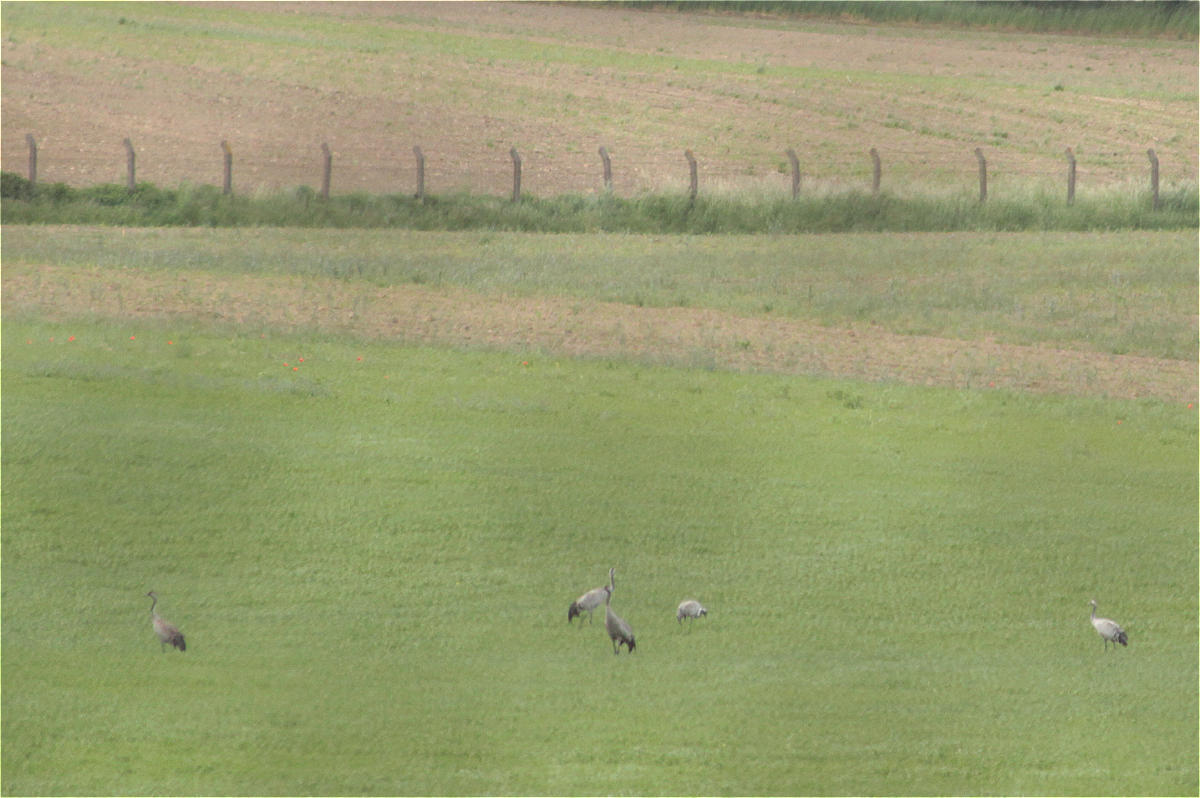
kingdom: Animalia
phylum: Chordata
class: Aves
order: Gruiformes
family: Gruidae
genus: Grus
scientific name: Grus grus
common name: Common crane
